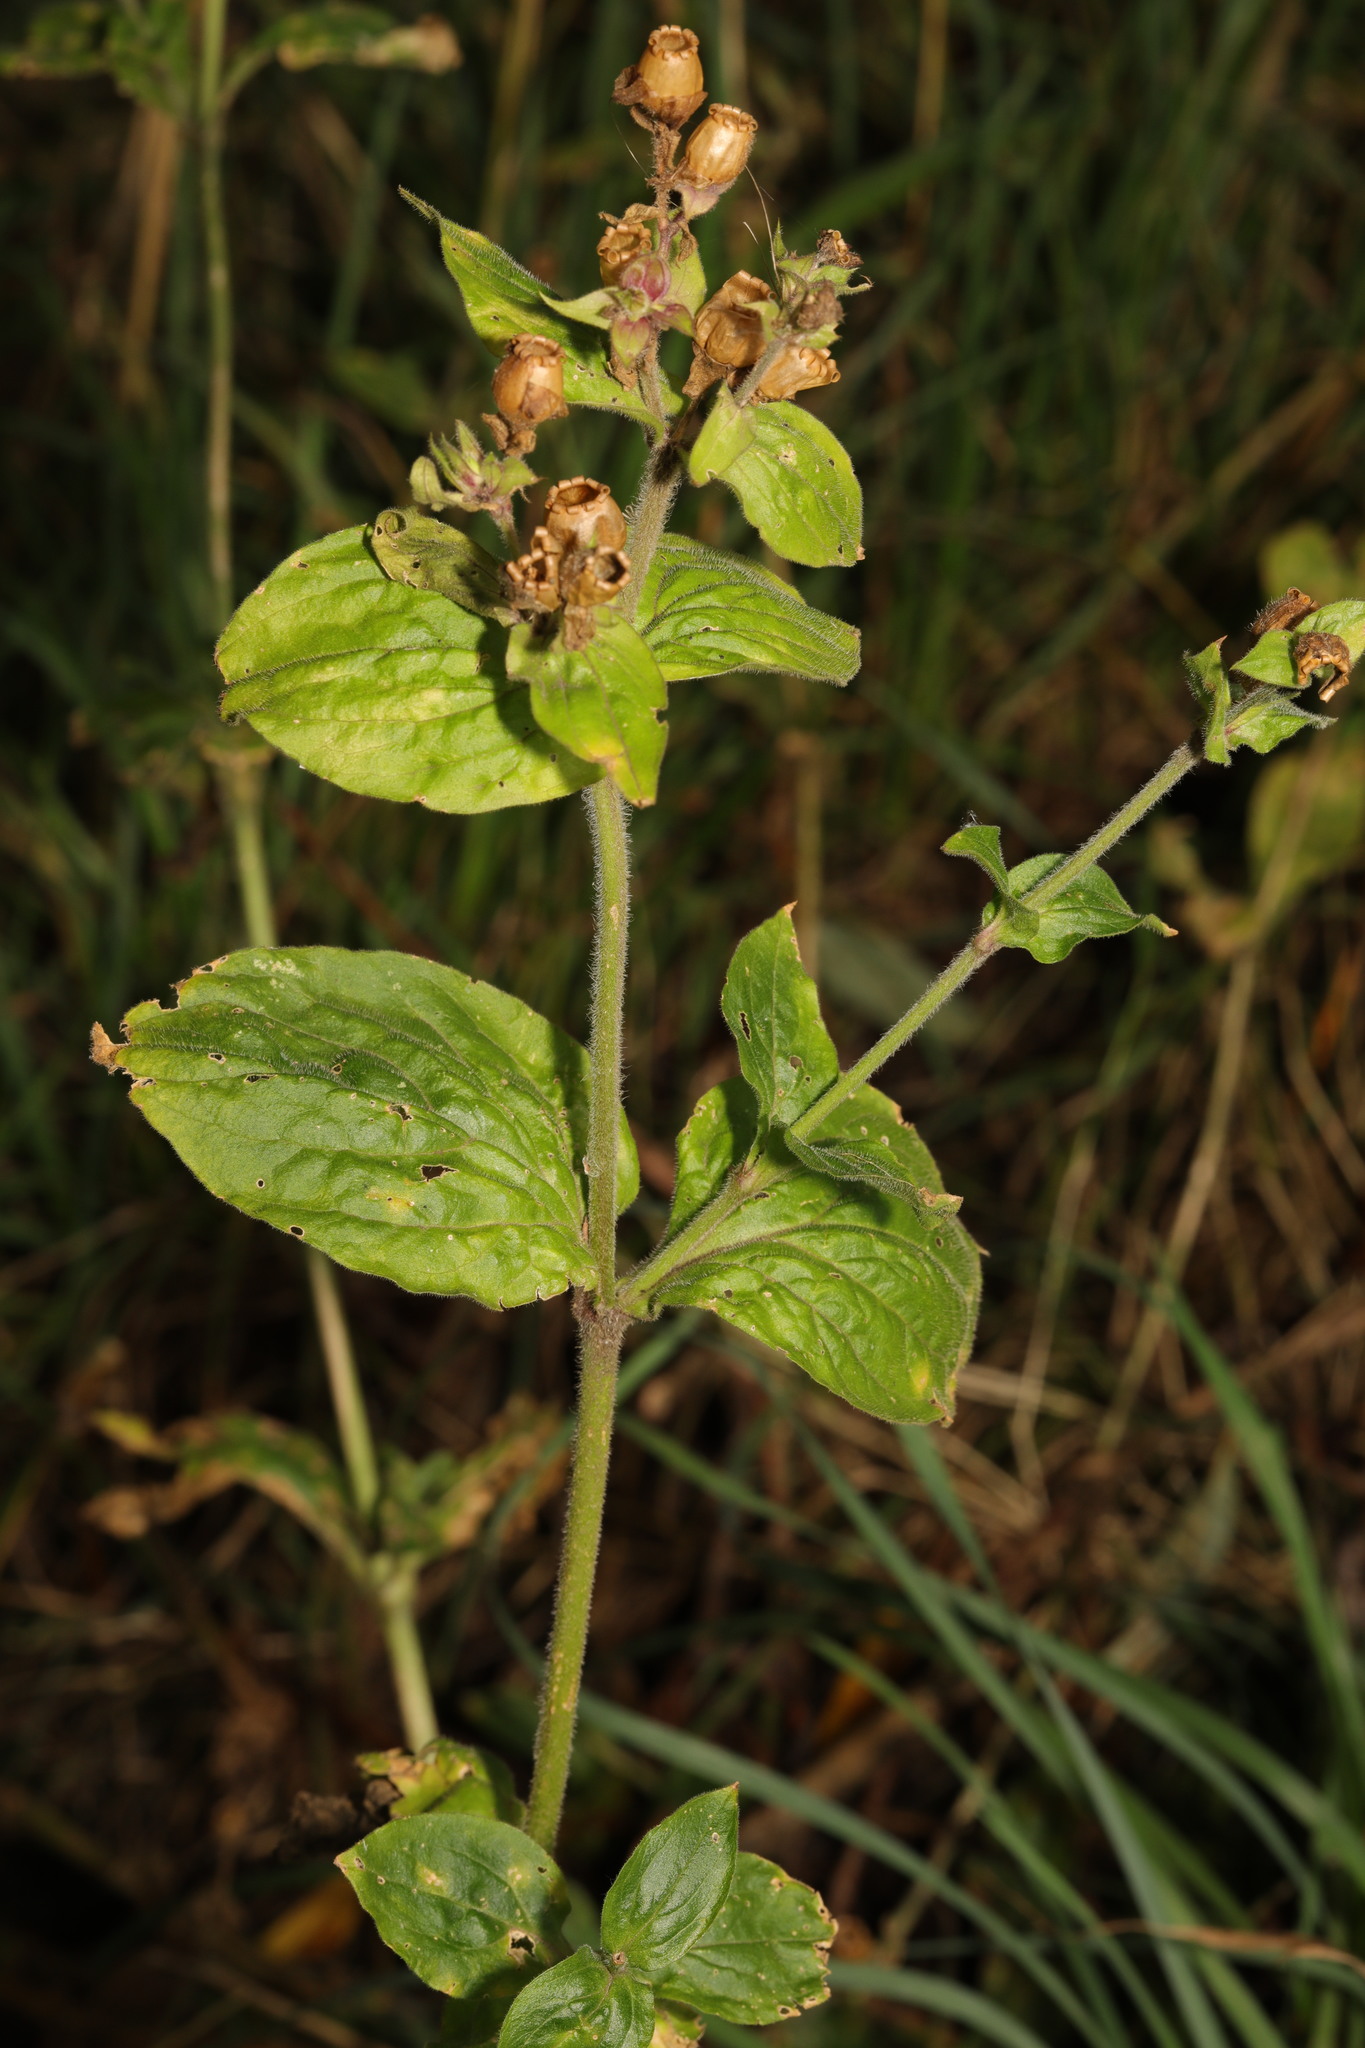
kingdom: Plantae
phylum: Tracheophyta
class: Magnoliopsida
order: Caryophyllales
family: Caryophyllaceae
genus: Silene
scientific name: Silene dioica
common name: Red campion
